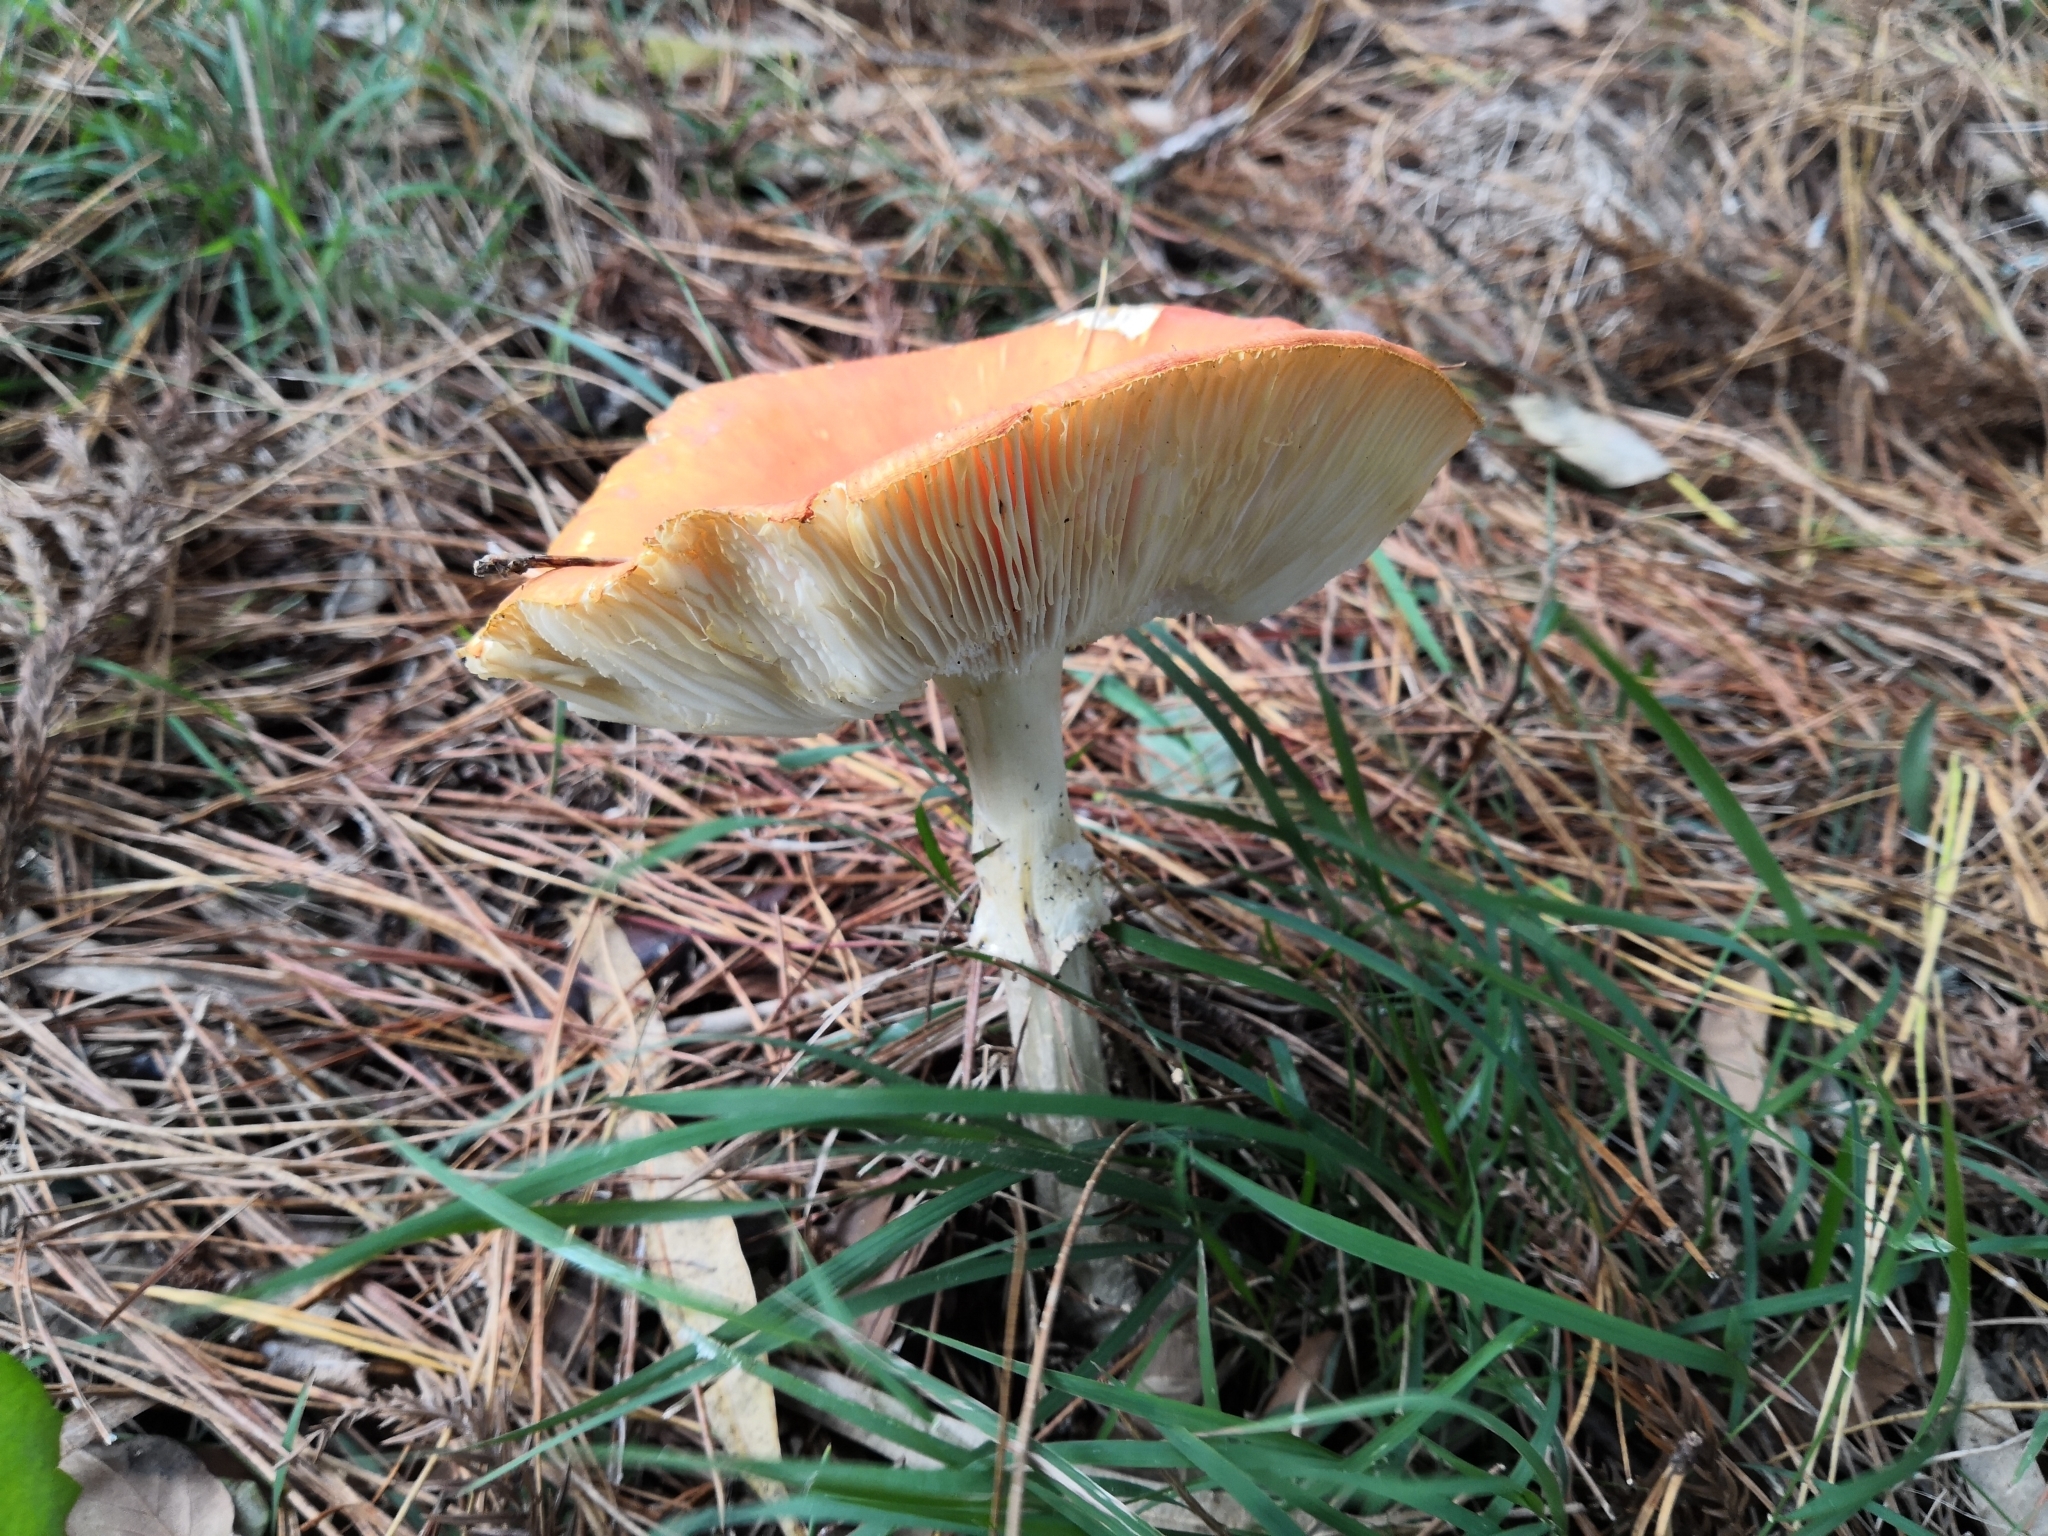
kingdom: Fungi
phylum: Basidiomycota
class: Agaricomycetes
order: Agaricales
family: Amanitaceae
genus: Amanita
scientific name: Amanita muscaria
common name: Fly agaric
